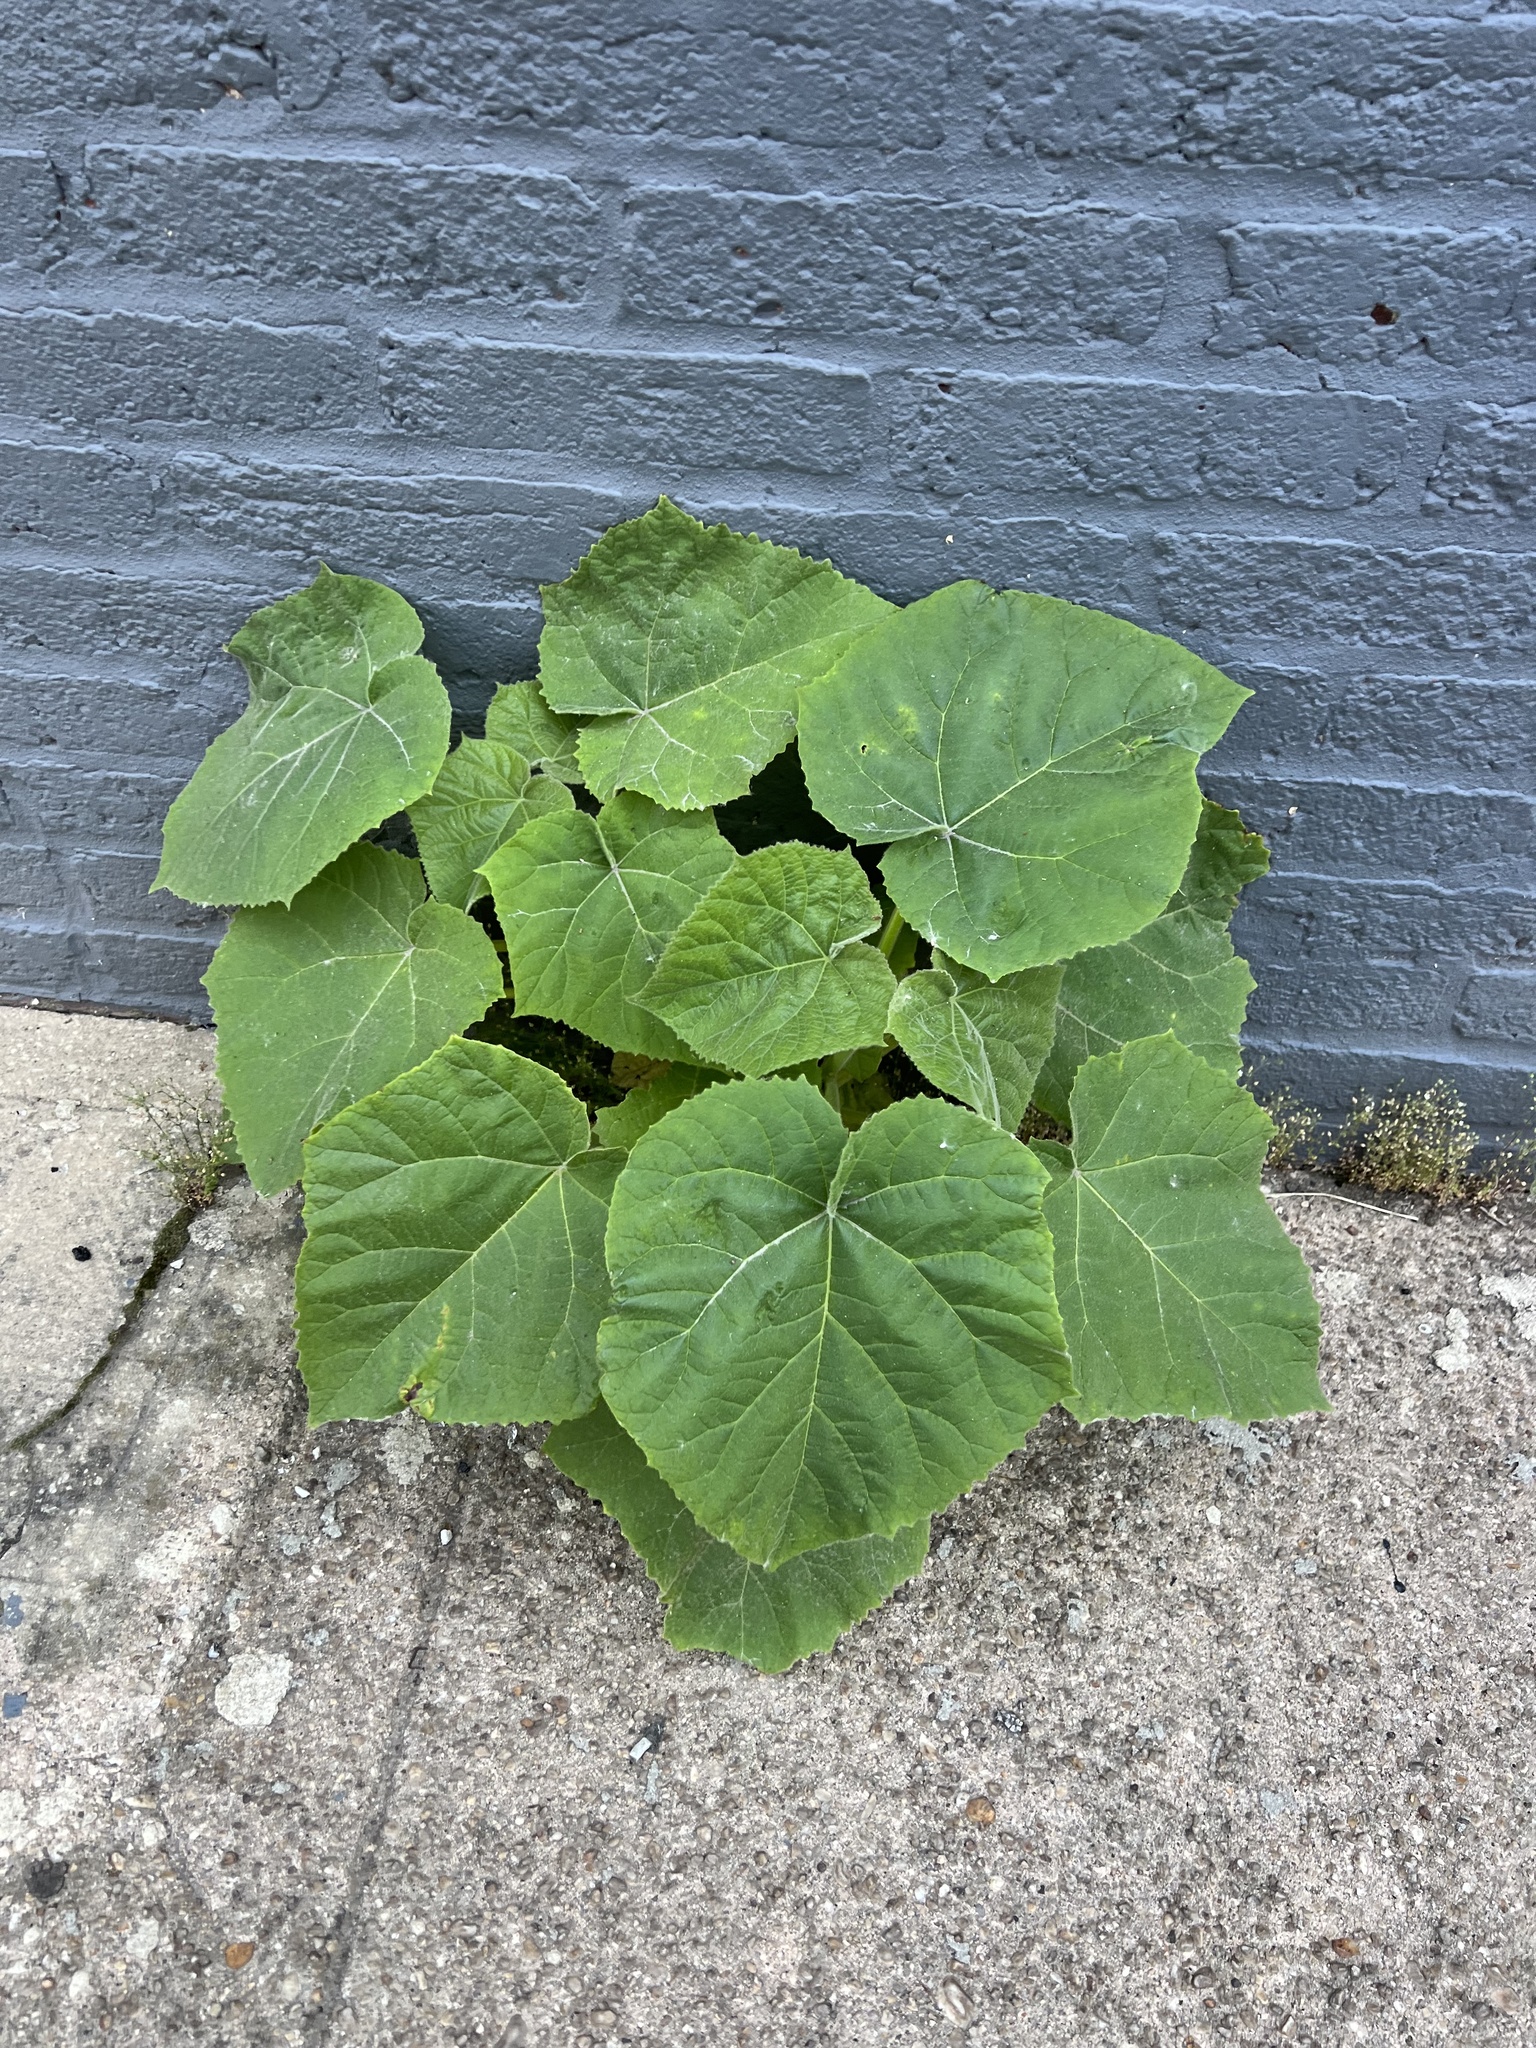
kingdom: Plantae
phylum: Tracheophyta
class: Magnoliopsida
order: Lamiales
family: Paulowniaceae
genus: Paulownia
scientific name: Paulownia tomentosa
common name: Foxglove-tree
